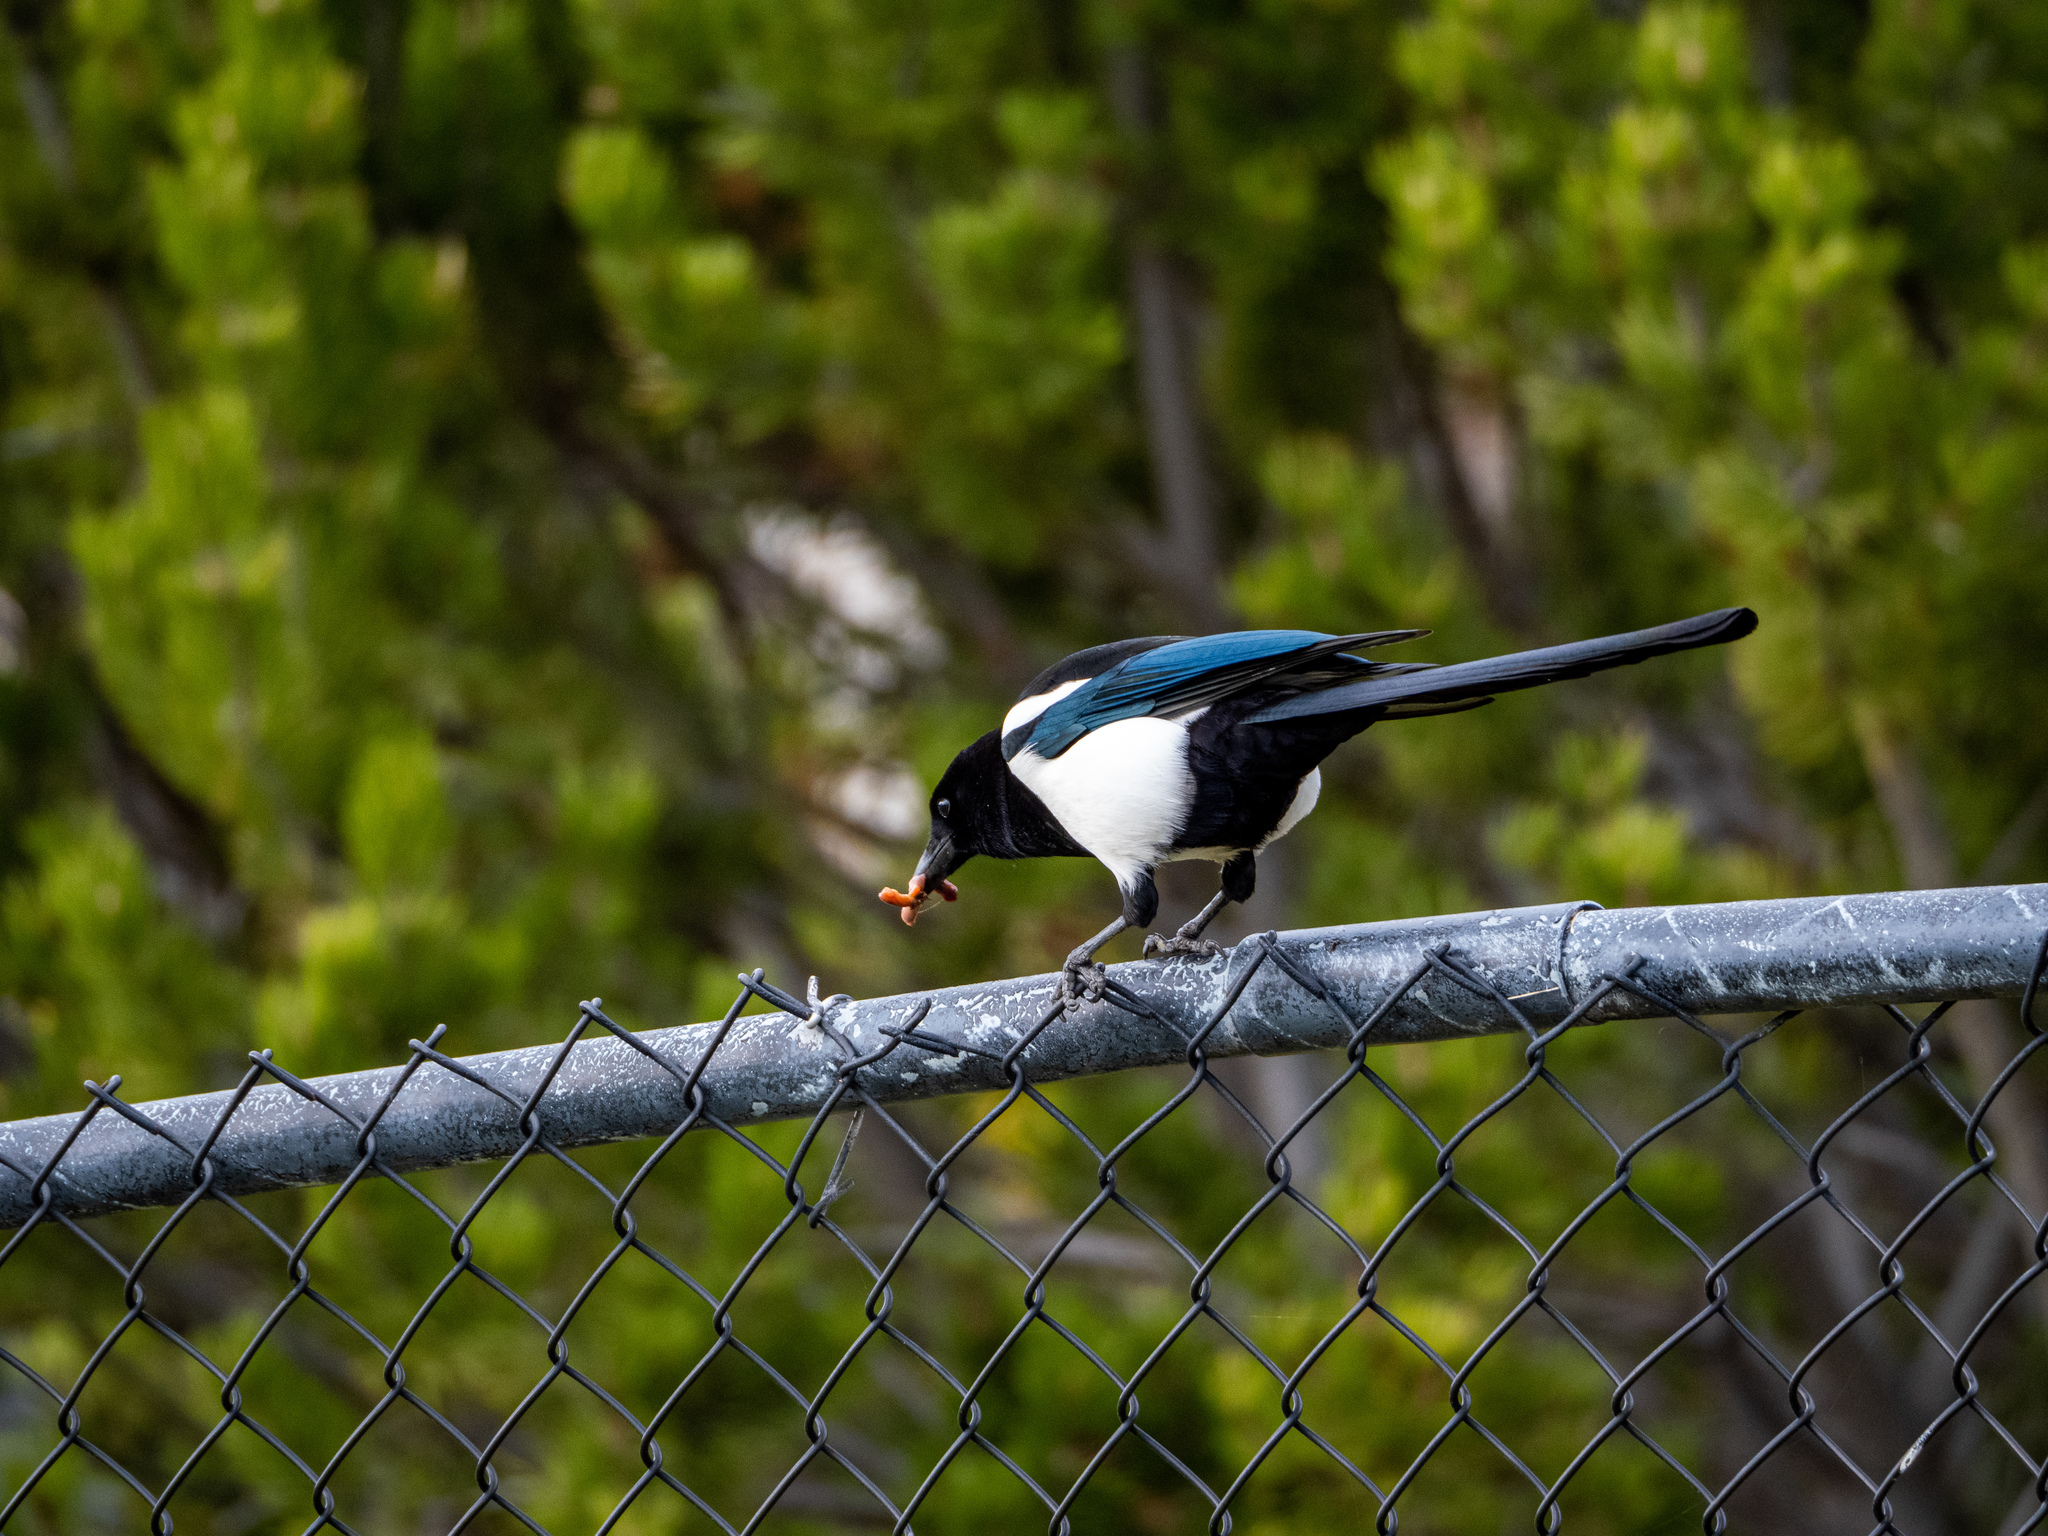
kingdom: Animalia
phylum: Chordata
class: Aves
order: Passeriformes
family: Corvidae
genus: Pica
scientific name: Pica hudsonia
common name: Black-billed magpie
